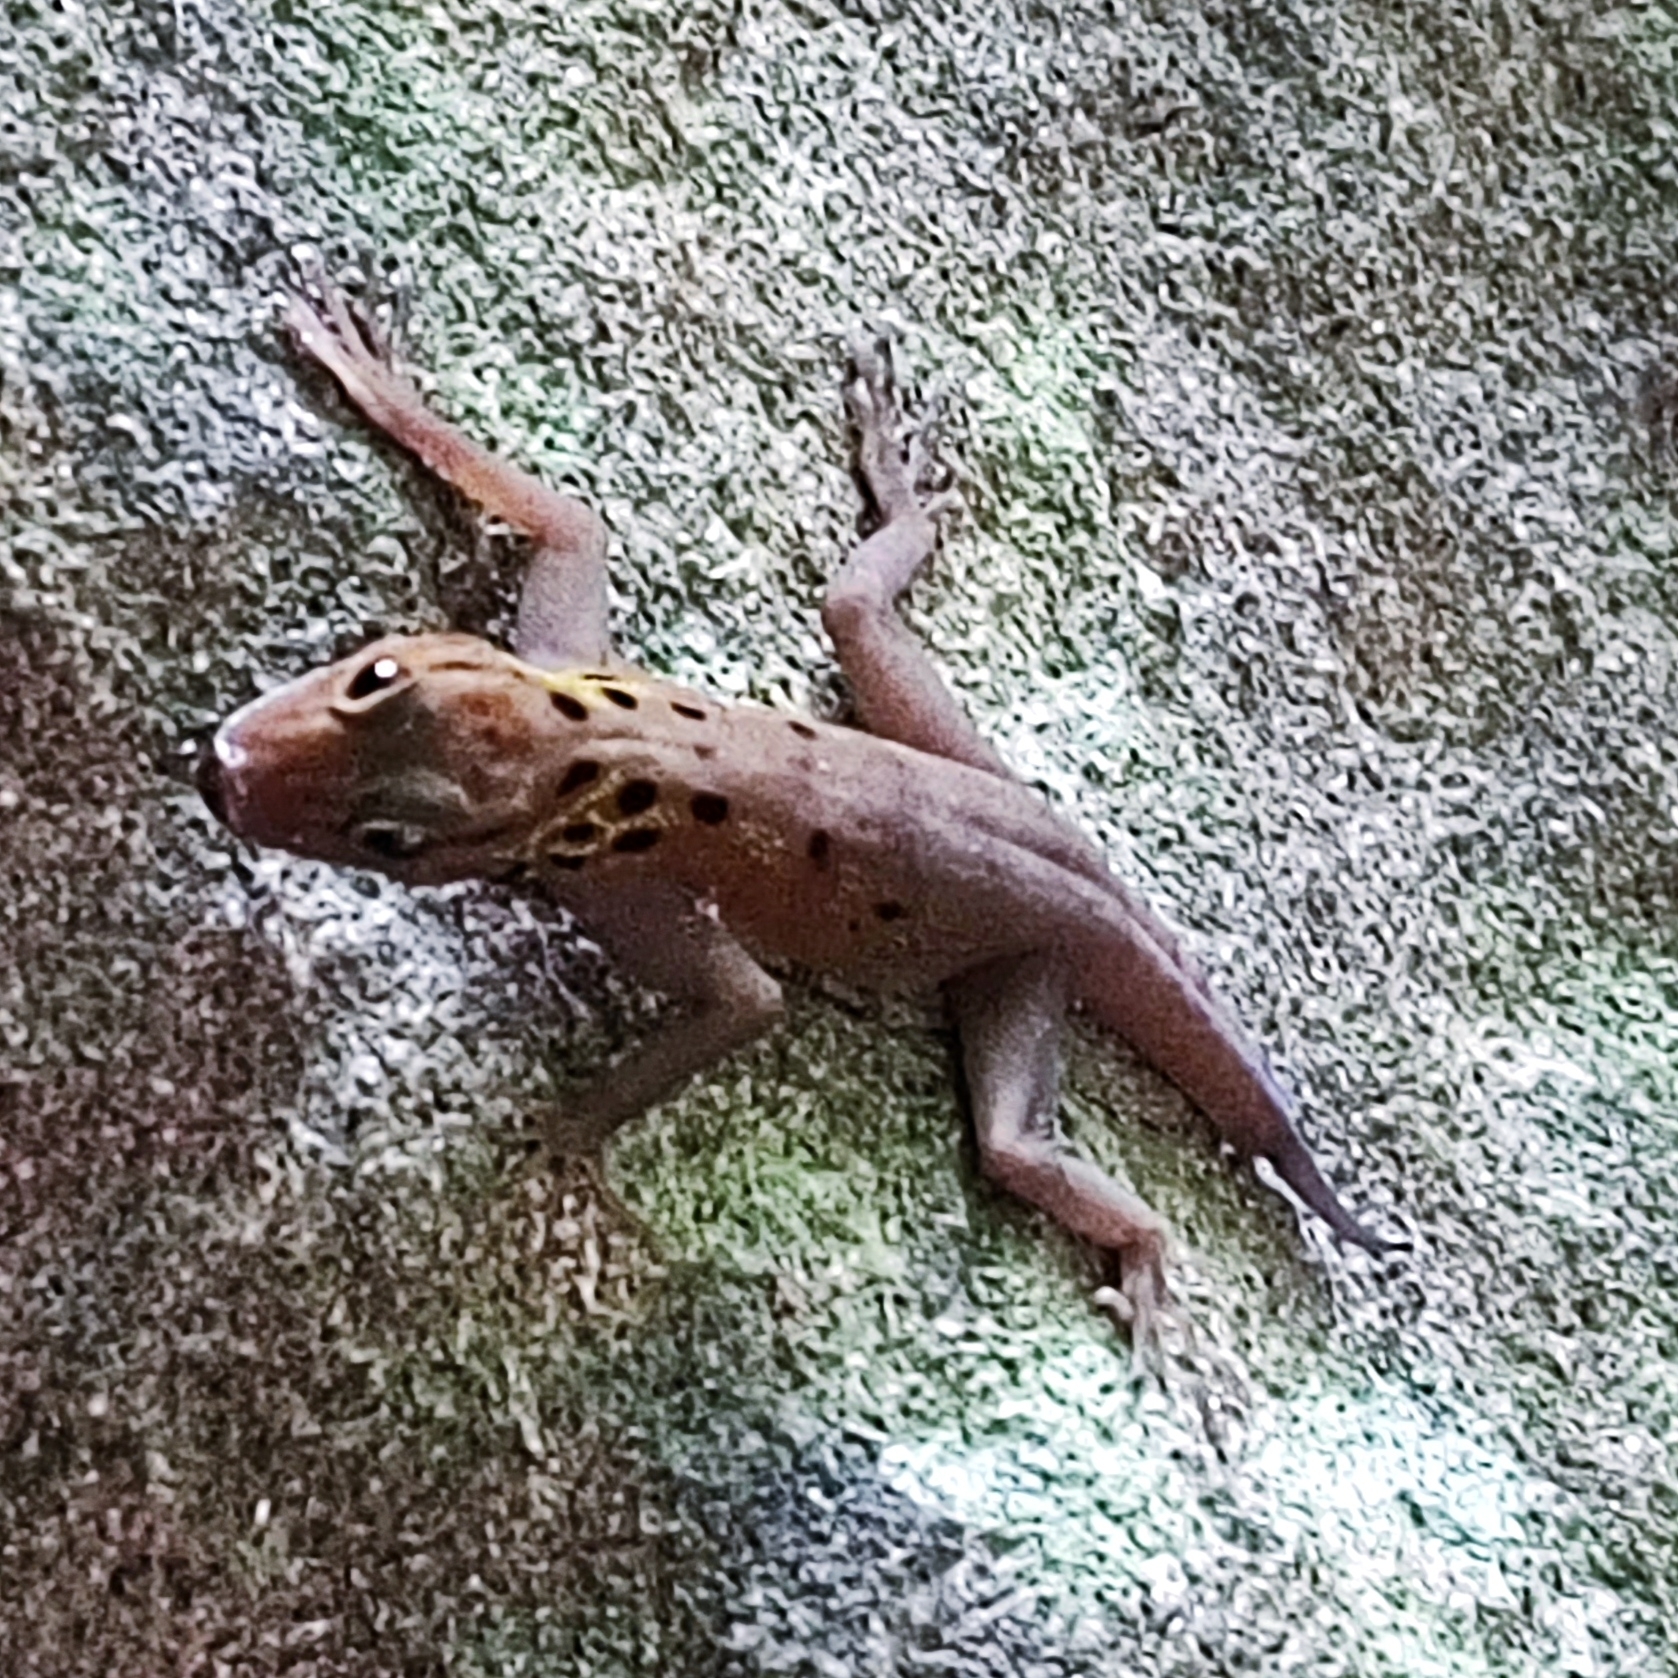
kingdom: Animalia
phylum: Chordata
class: Squamata
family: Gekkonidae
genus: Cnemaspis
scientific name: Cnemaspis boulengeri
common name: Boulenger's rock gecko
